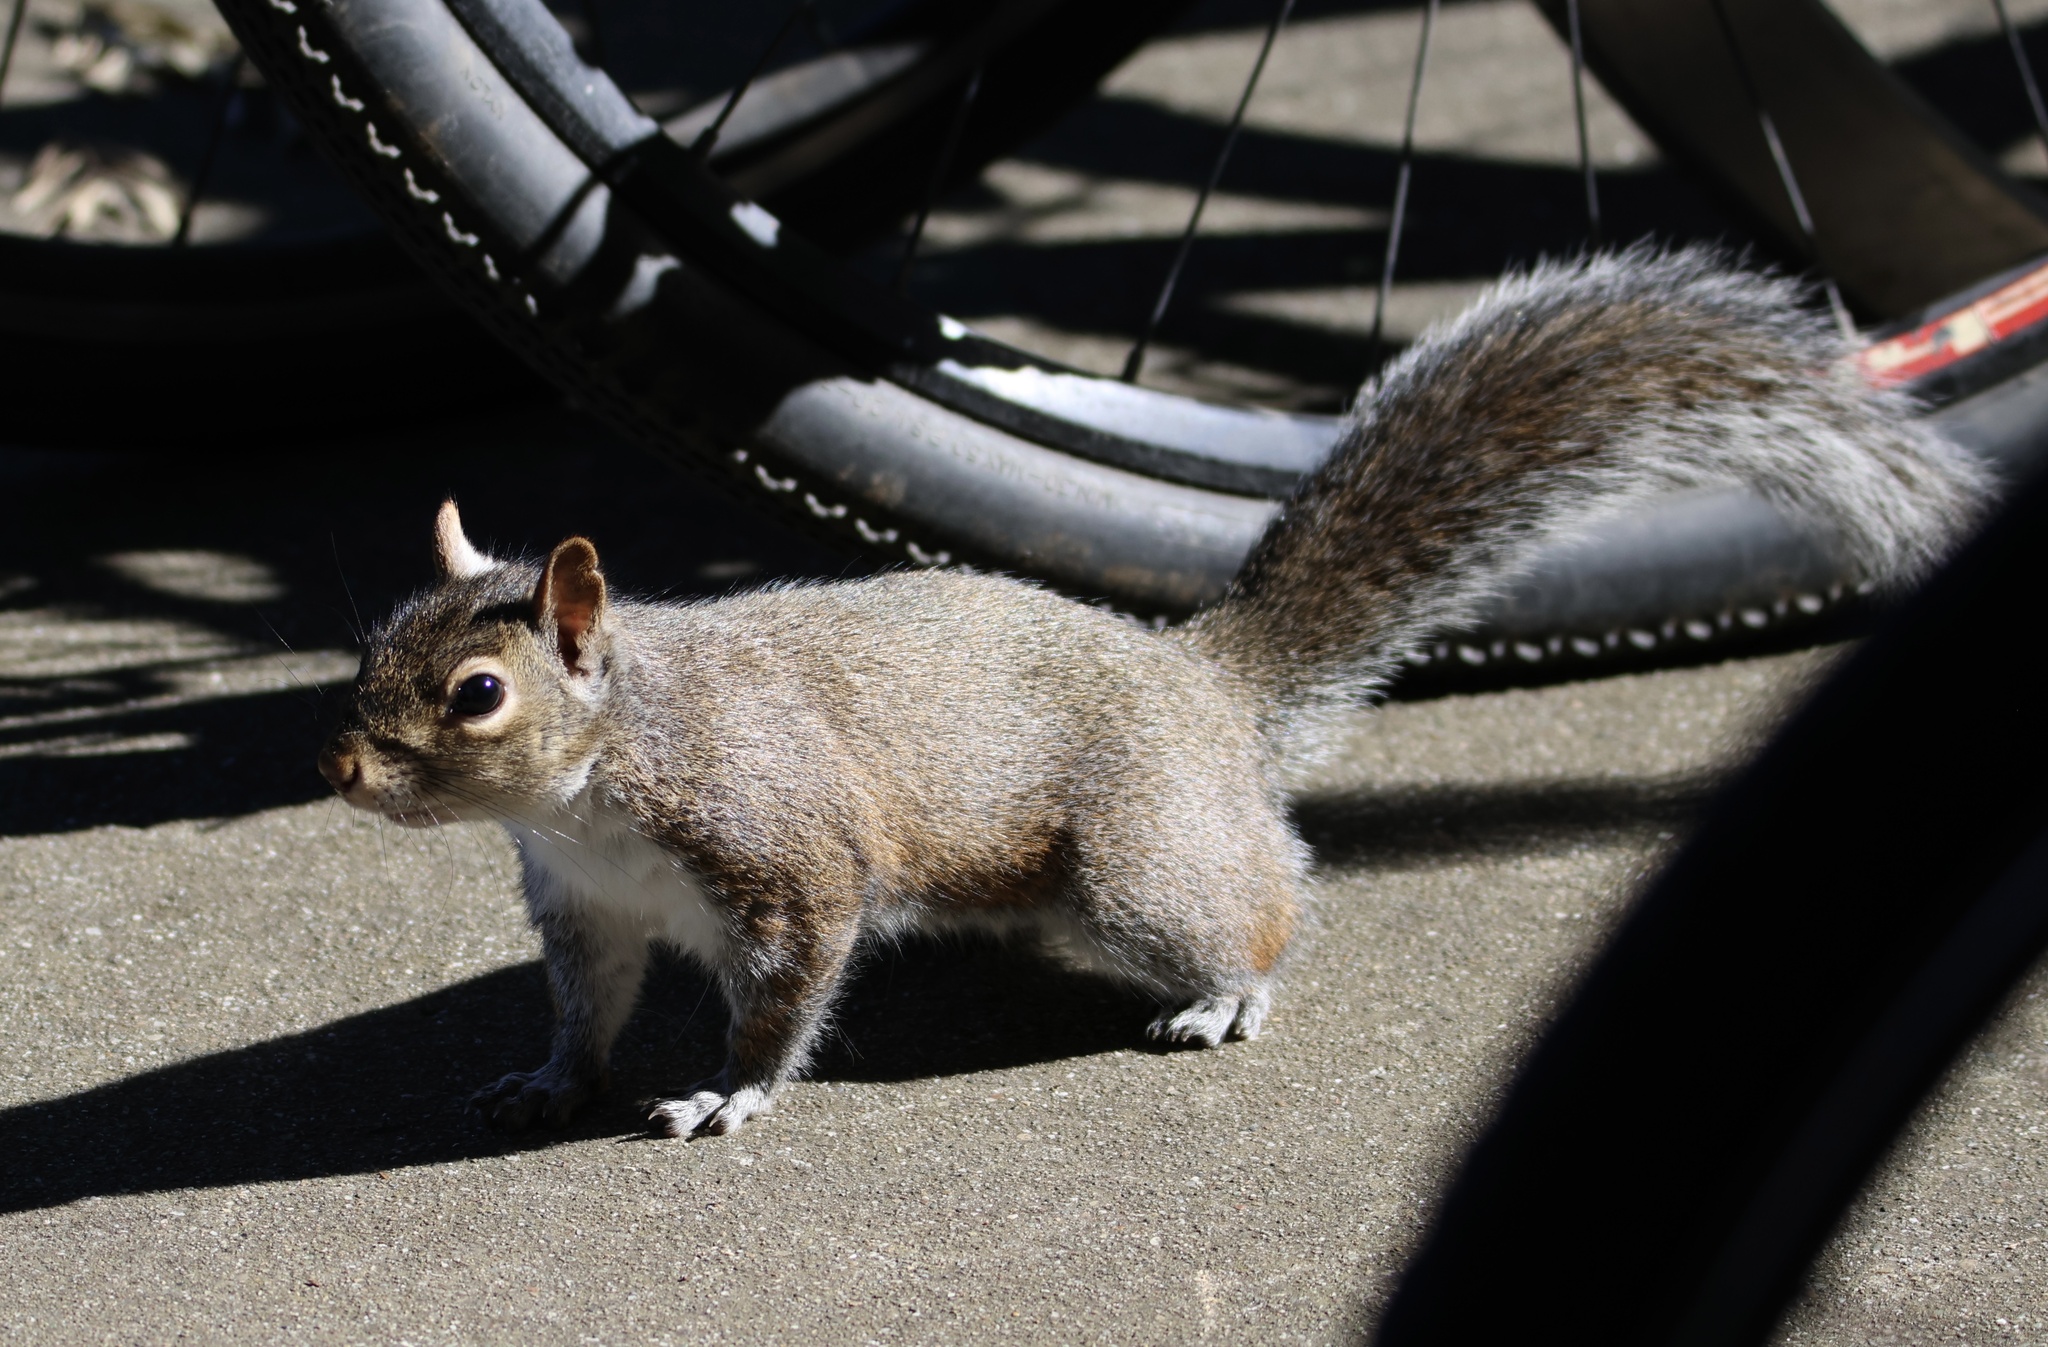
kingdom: Animalia
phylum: Chordata
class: Mammalia
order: Rodentia
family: Sciuridae
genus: Sciurus
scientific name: Sciurus carolinensis
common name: Eastern gray squirrel
